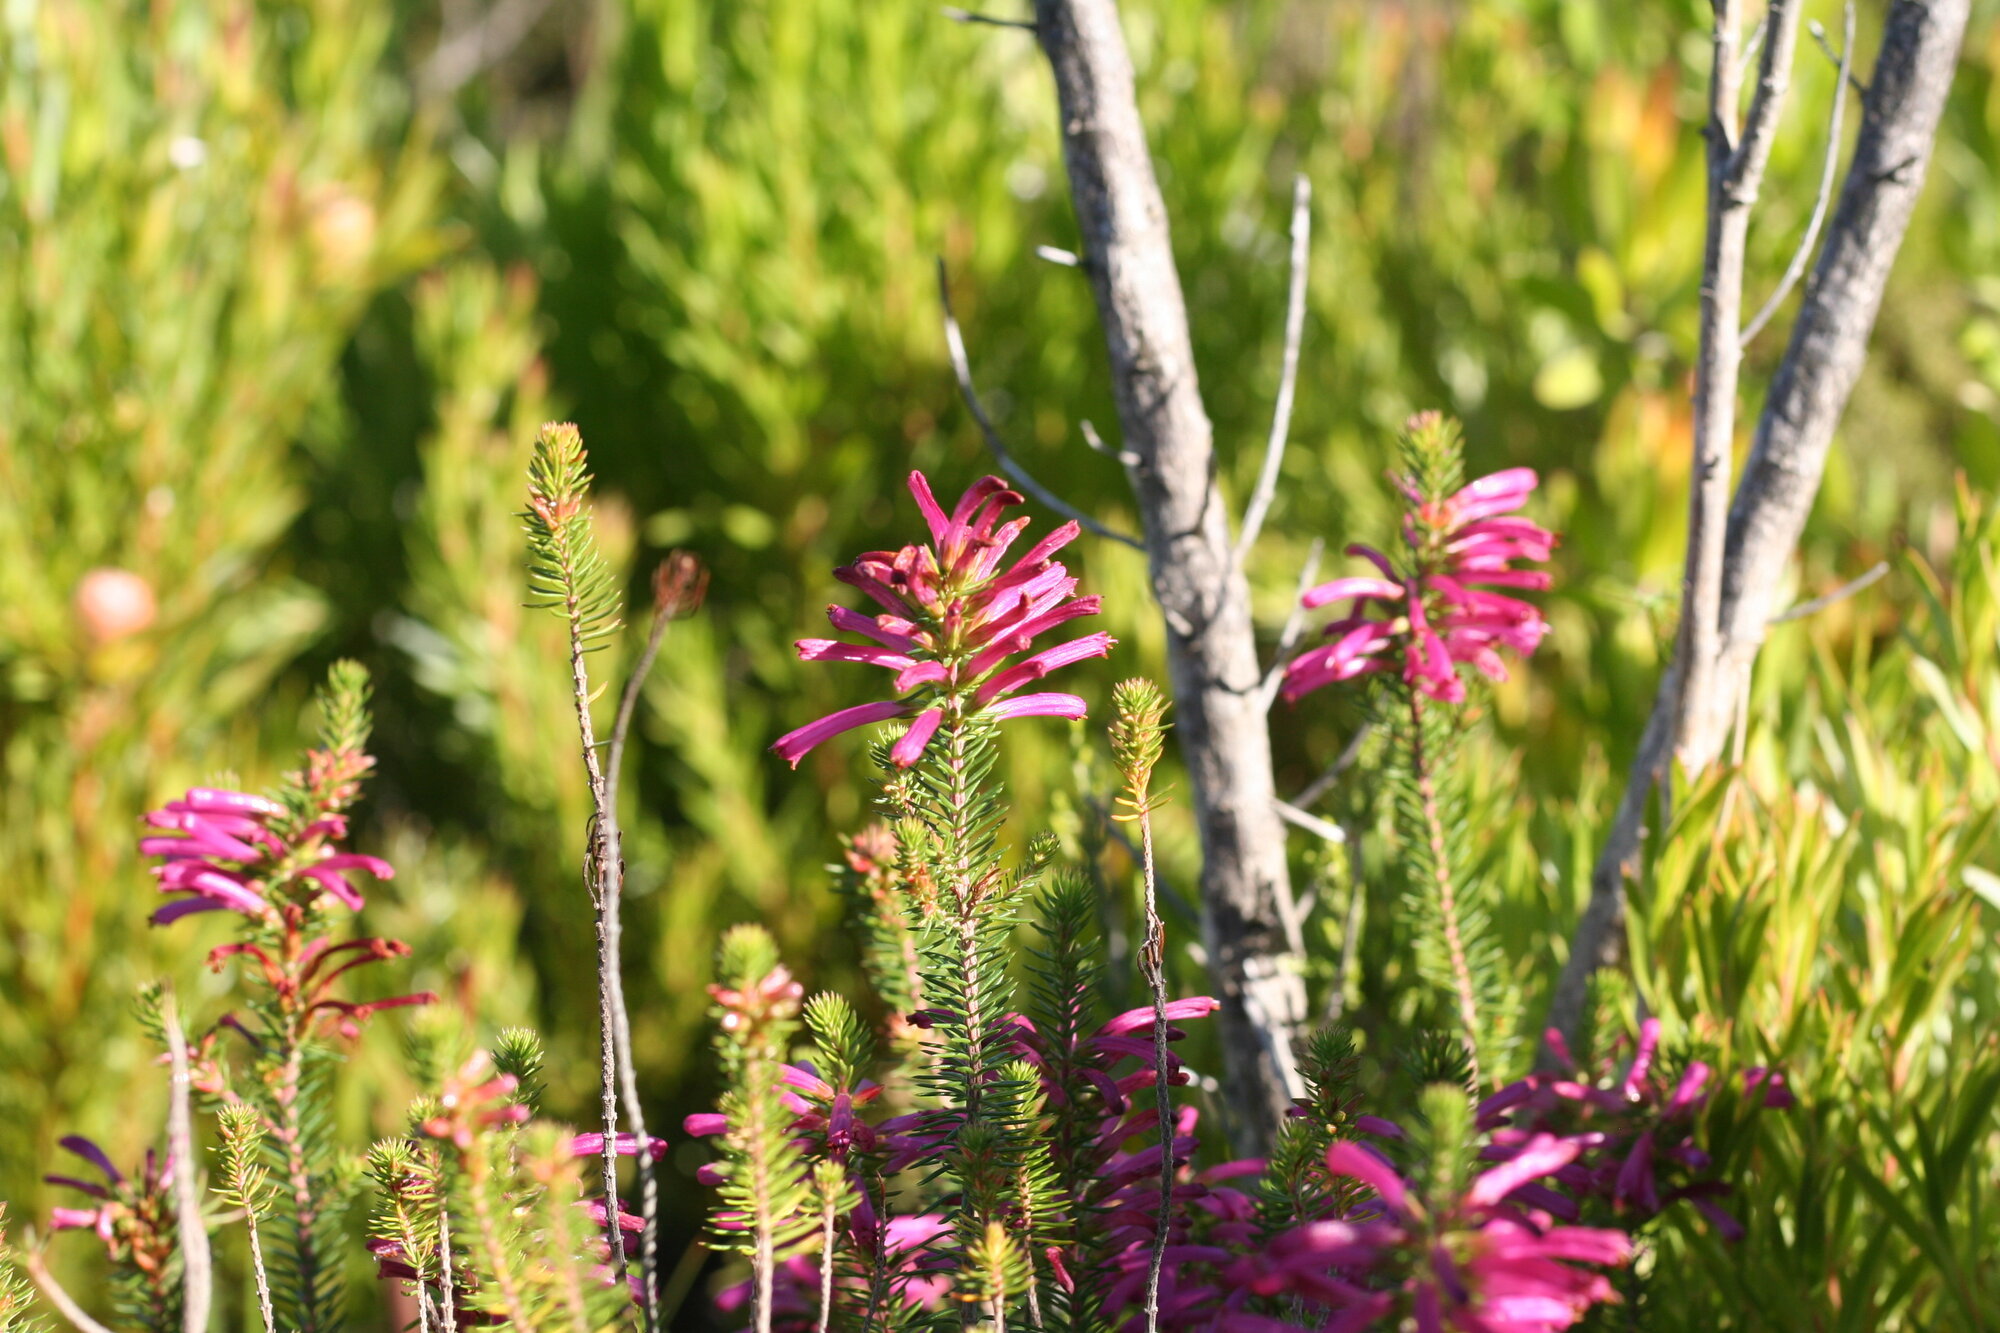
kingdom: Plantae
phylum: Tracheophyta
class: Magnoliopsida
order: Ericales
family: Ericaceae
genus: Erica
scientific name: Erica abietina
